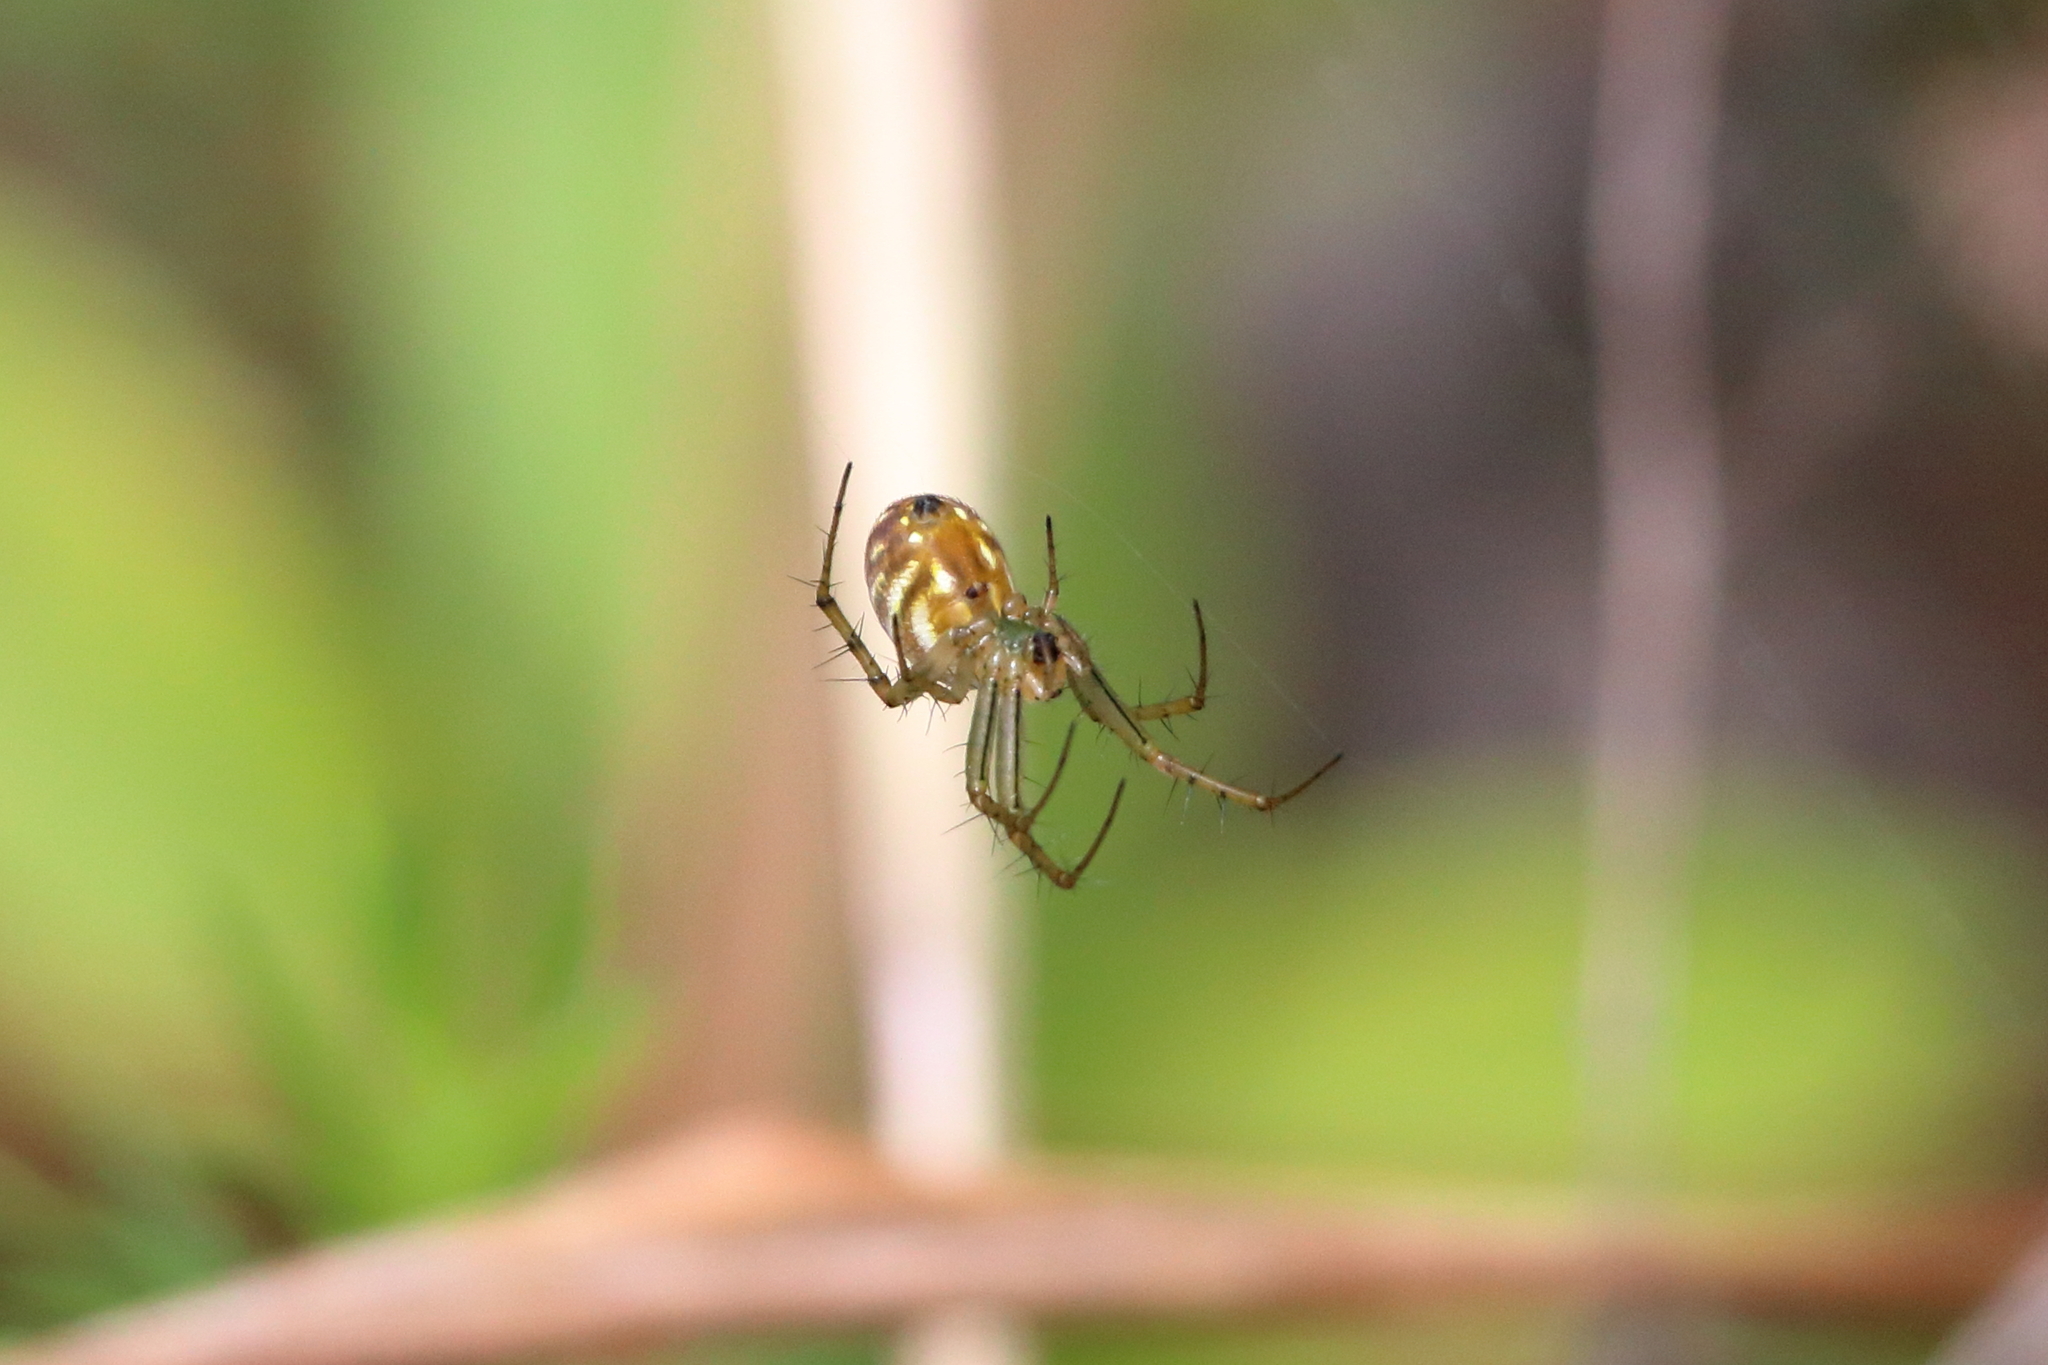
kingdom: Animalia
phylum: Arthropoda
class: Arachnida
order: Araneae
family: Araneidae
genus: Mangora
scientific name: Mangora gibberosa
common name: Lined orbweaver
